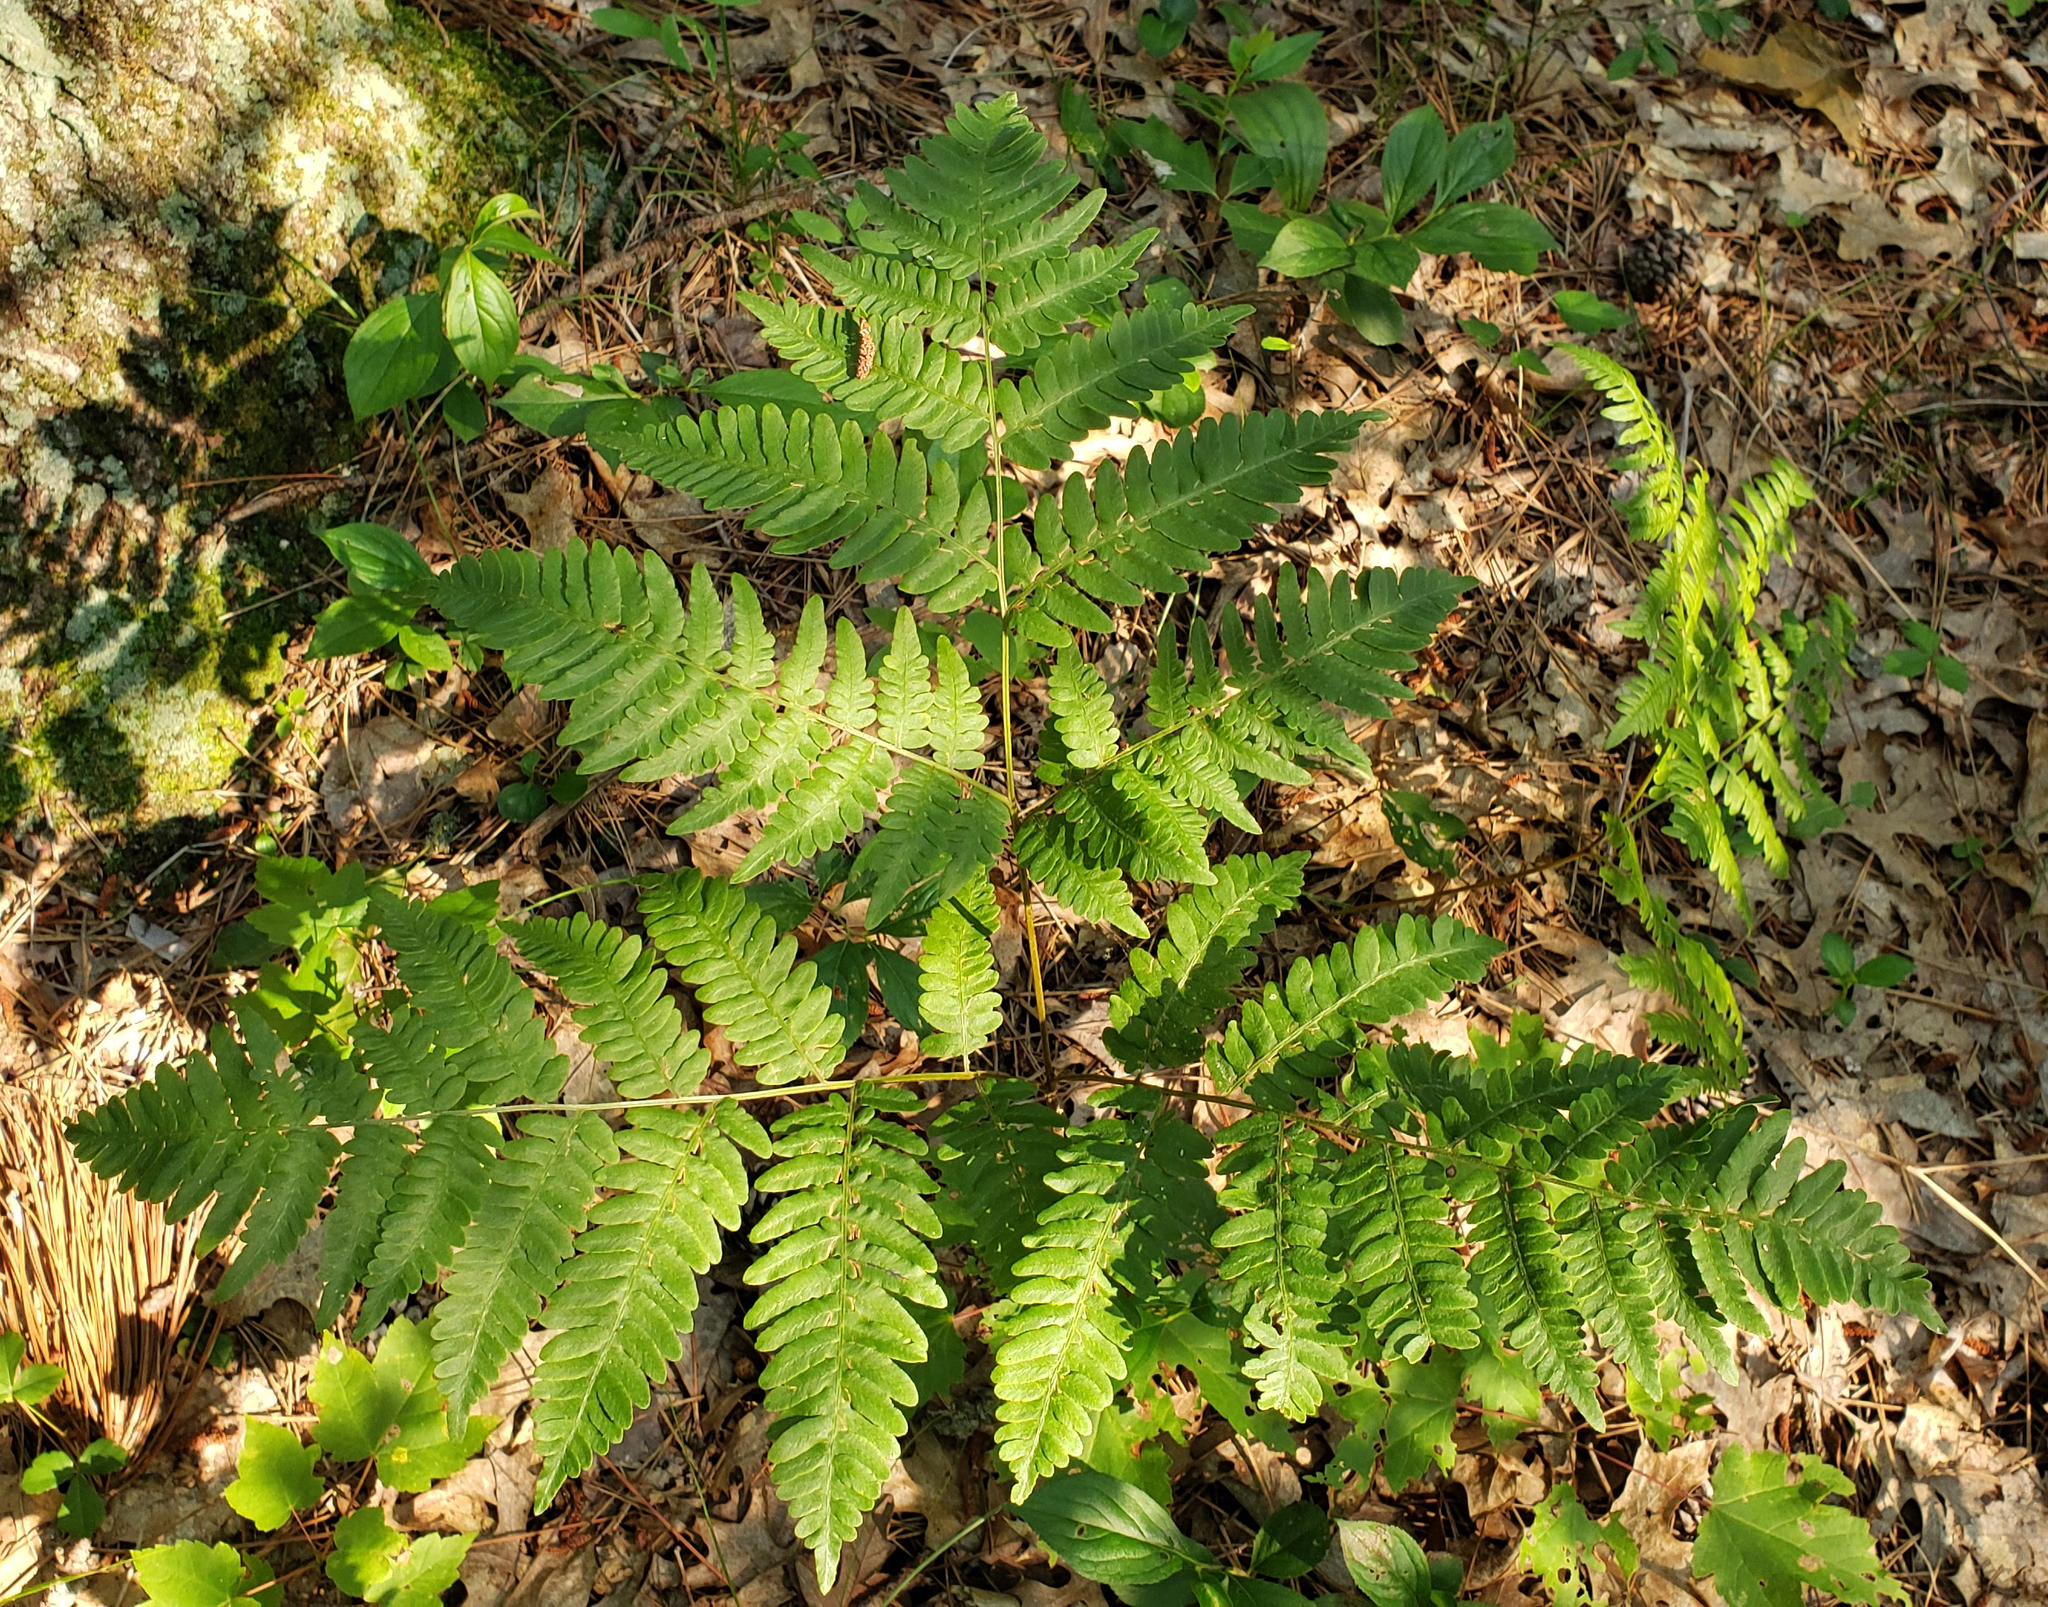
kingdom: Plantae
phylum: Tracheophyta
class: Polypodiopsida
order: Polypodiales
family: Dennstaedtiaceae
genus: Pteridium
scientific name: Pteridium aquilinum
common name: Bracken
